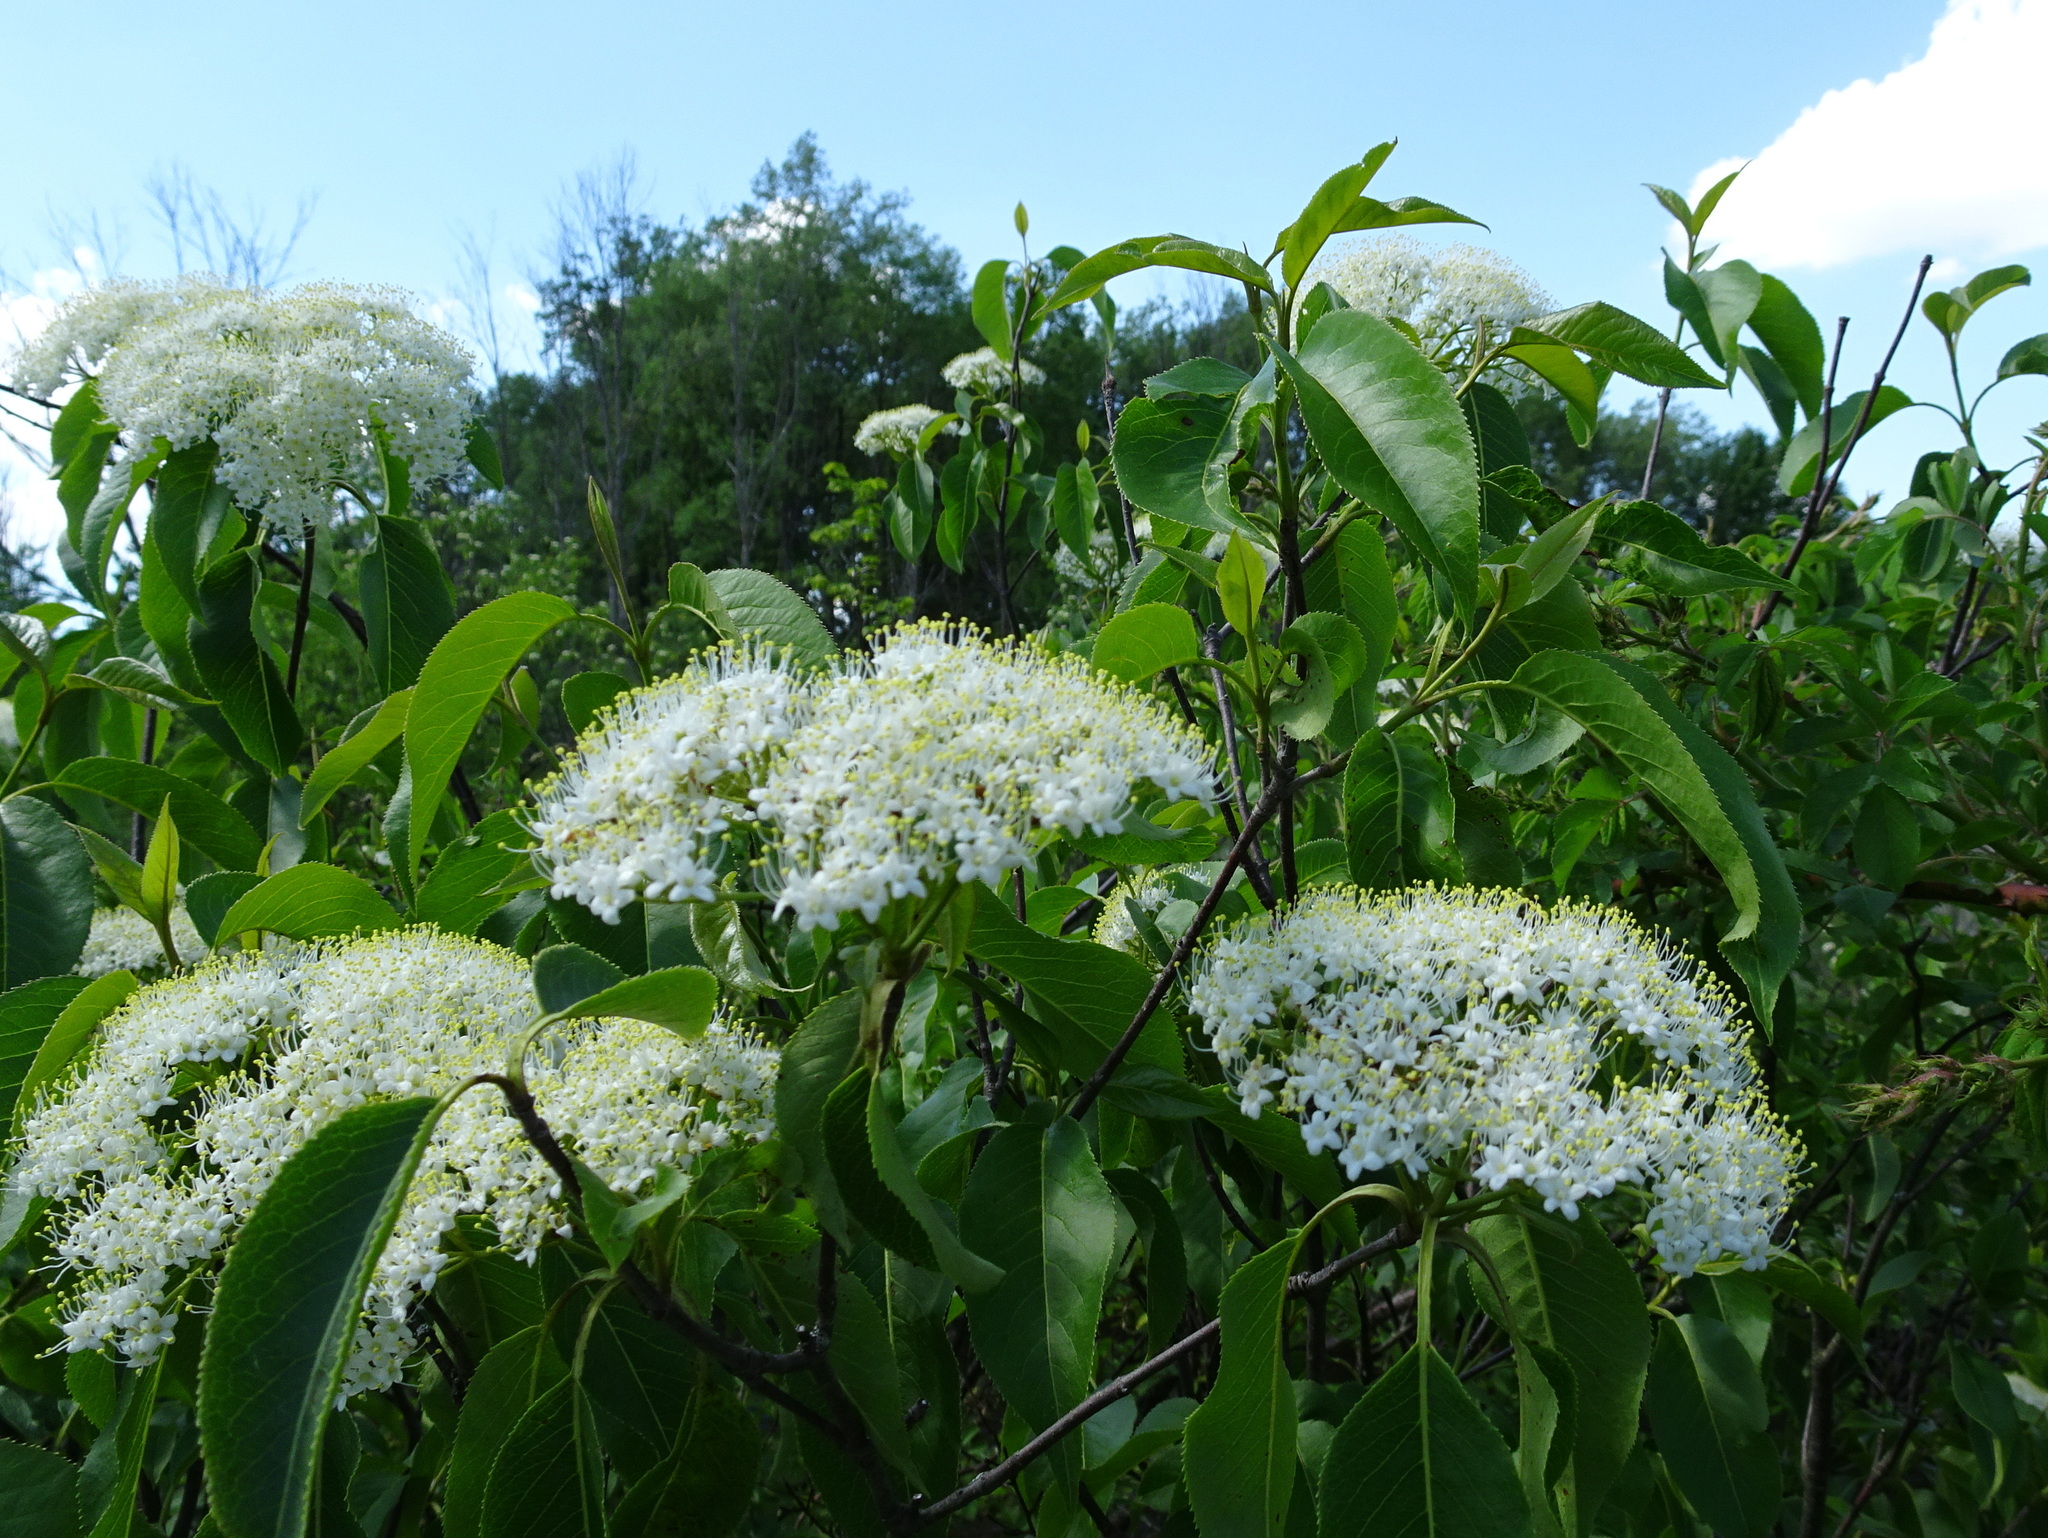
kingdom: Plantae
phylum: Tracheophyta
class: Magnoliopsida
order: Dipsacales
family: Viburnaceae
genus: Viburnum
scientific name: Viburnum lentago
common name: Black haw
